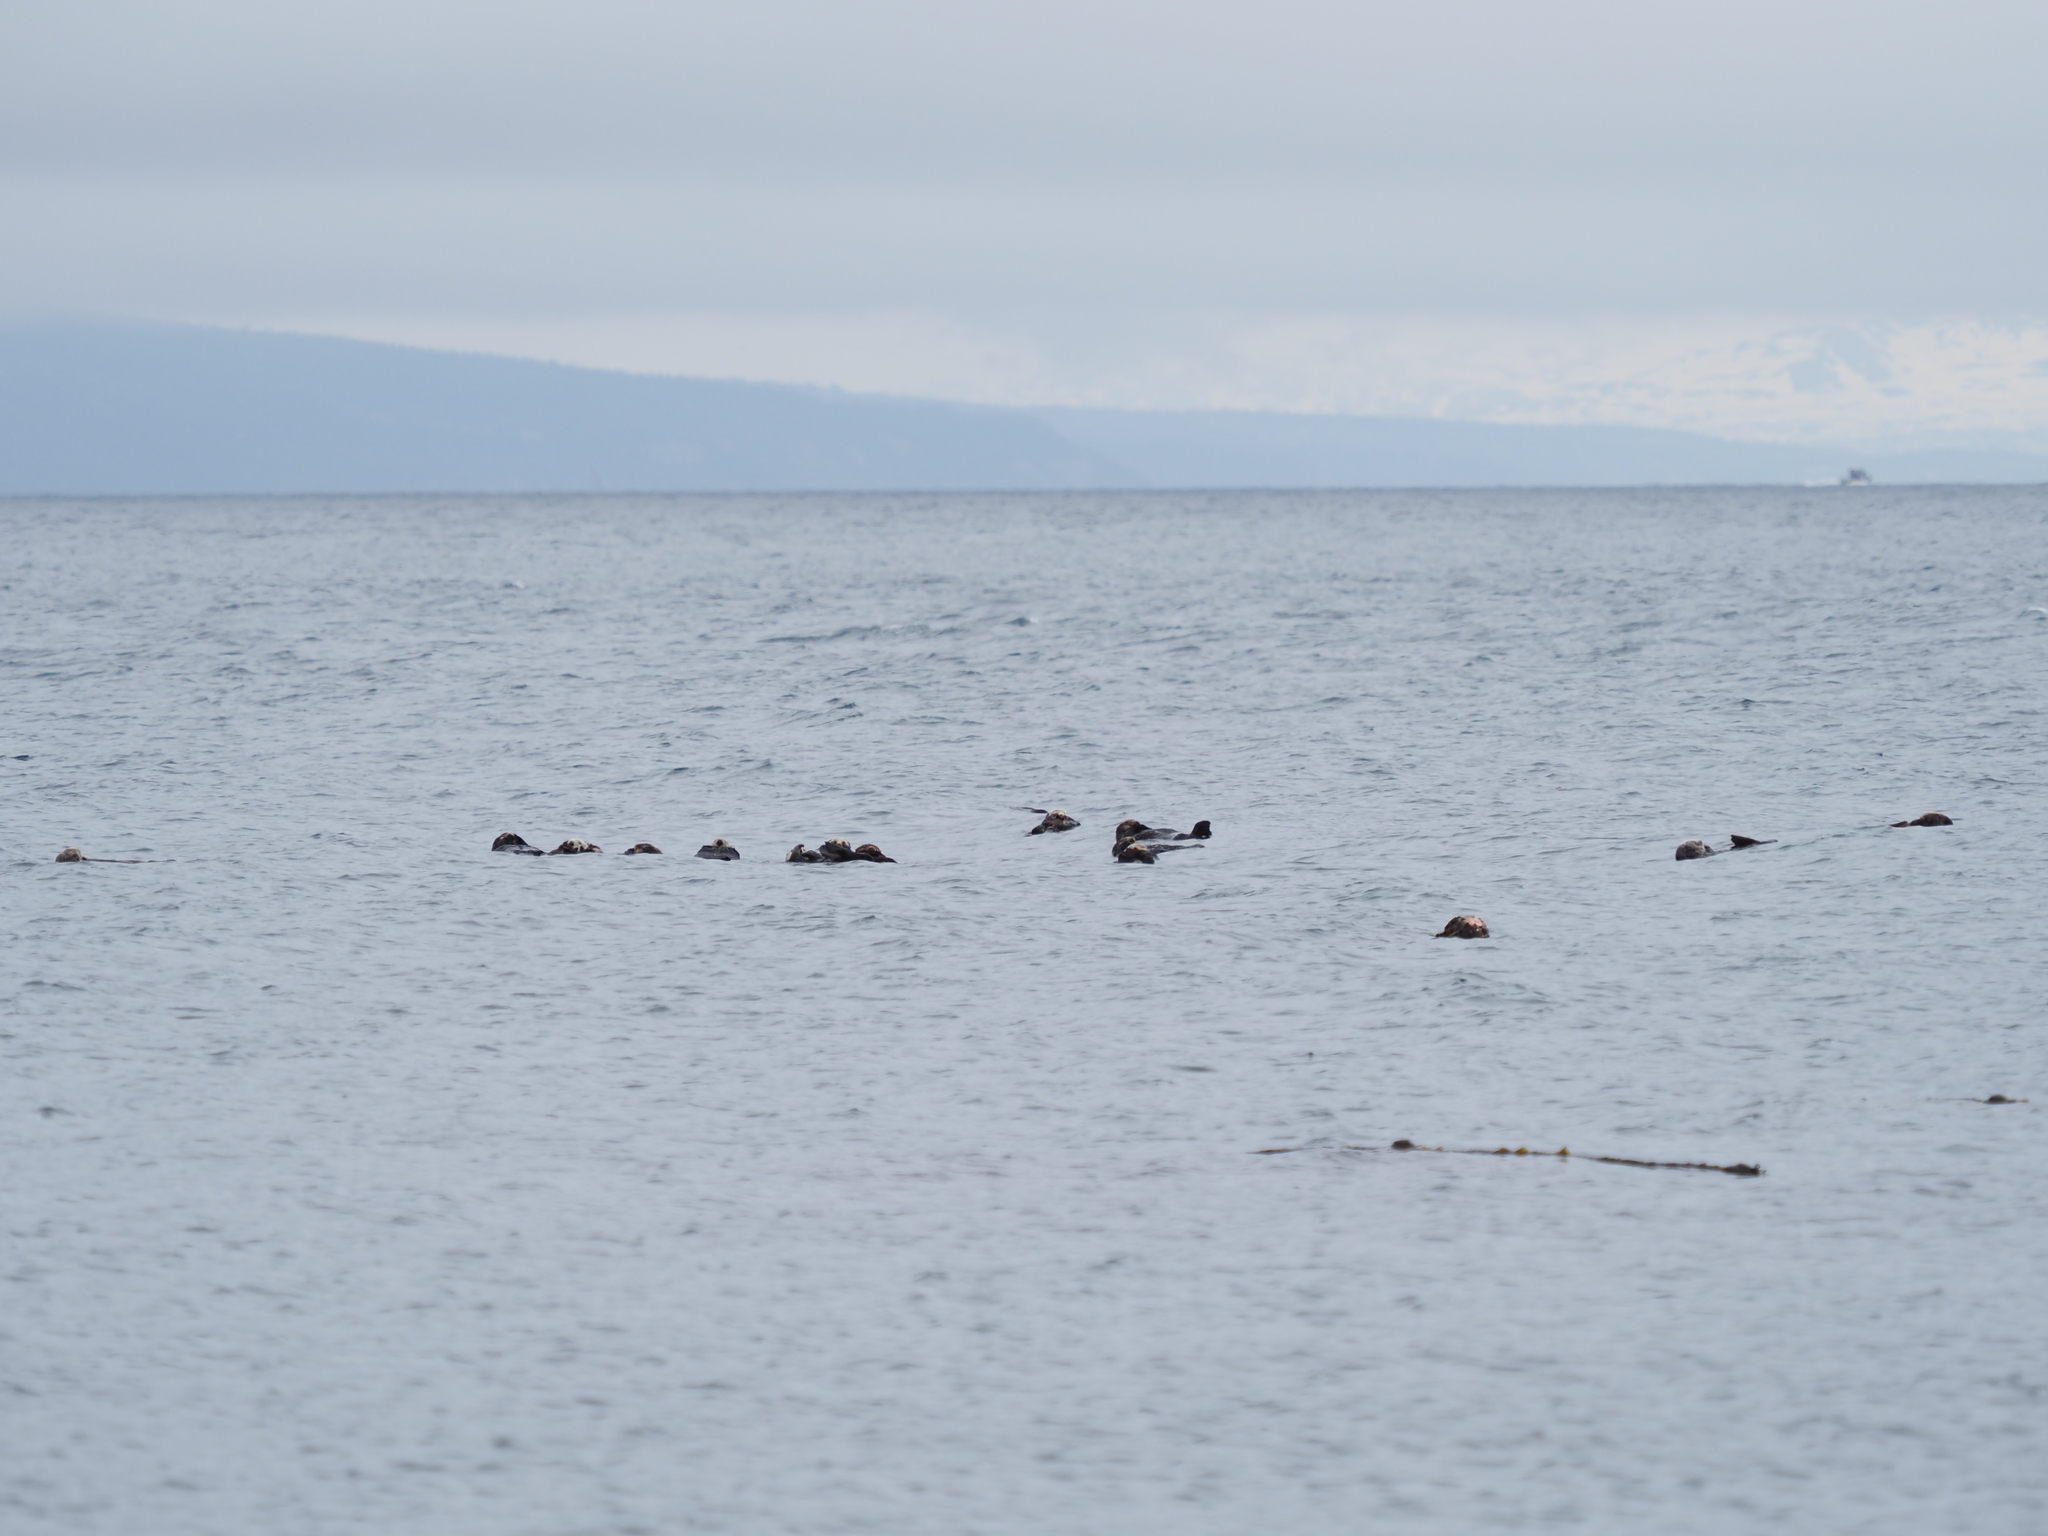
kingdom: Animalia
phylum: Chordata
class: Mammalia
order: Carnivora
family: Mustelidae
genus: Enhydra
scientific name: Enhydra lutris
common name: Sea otter
